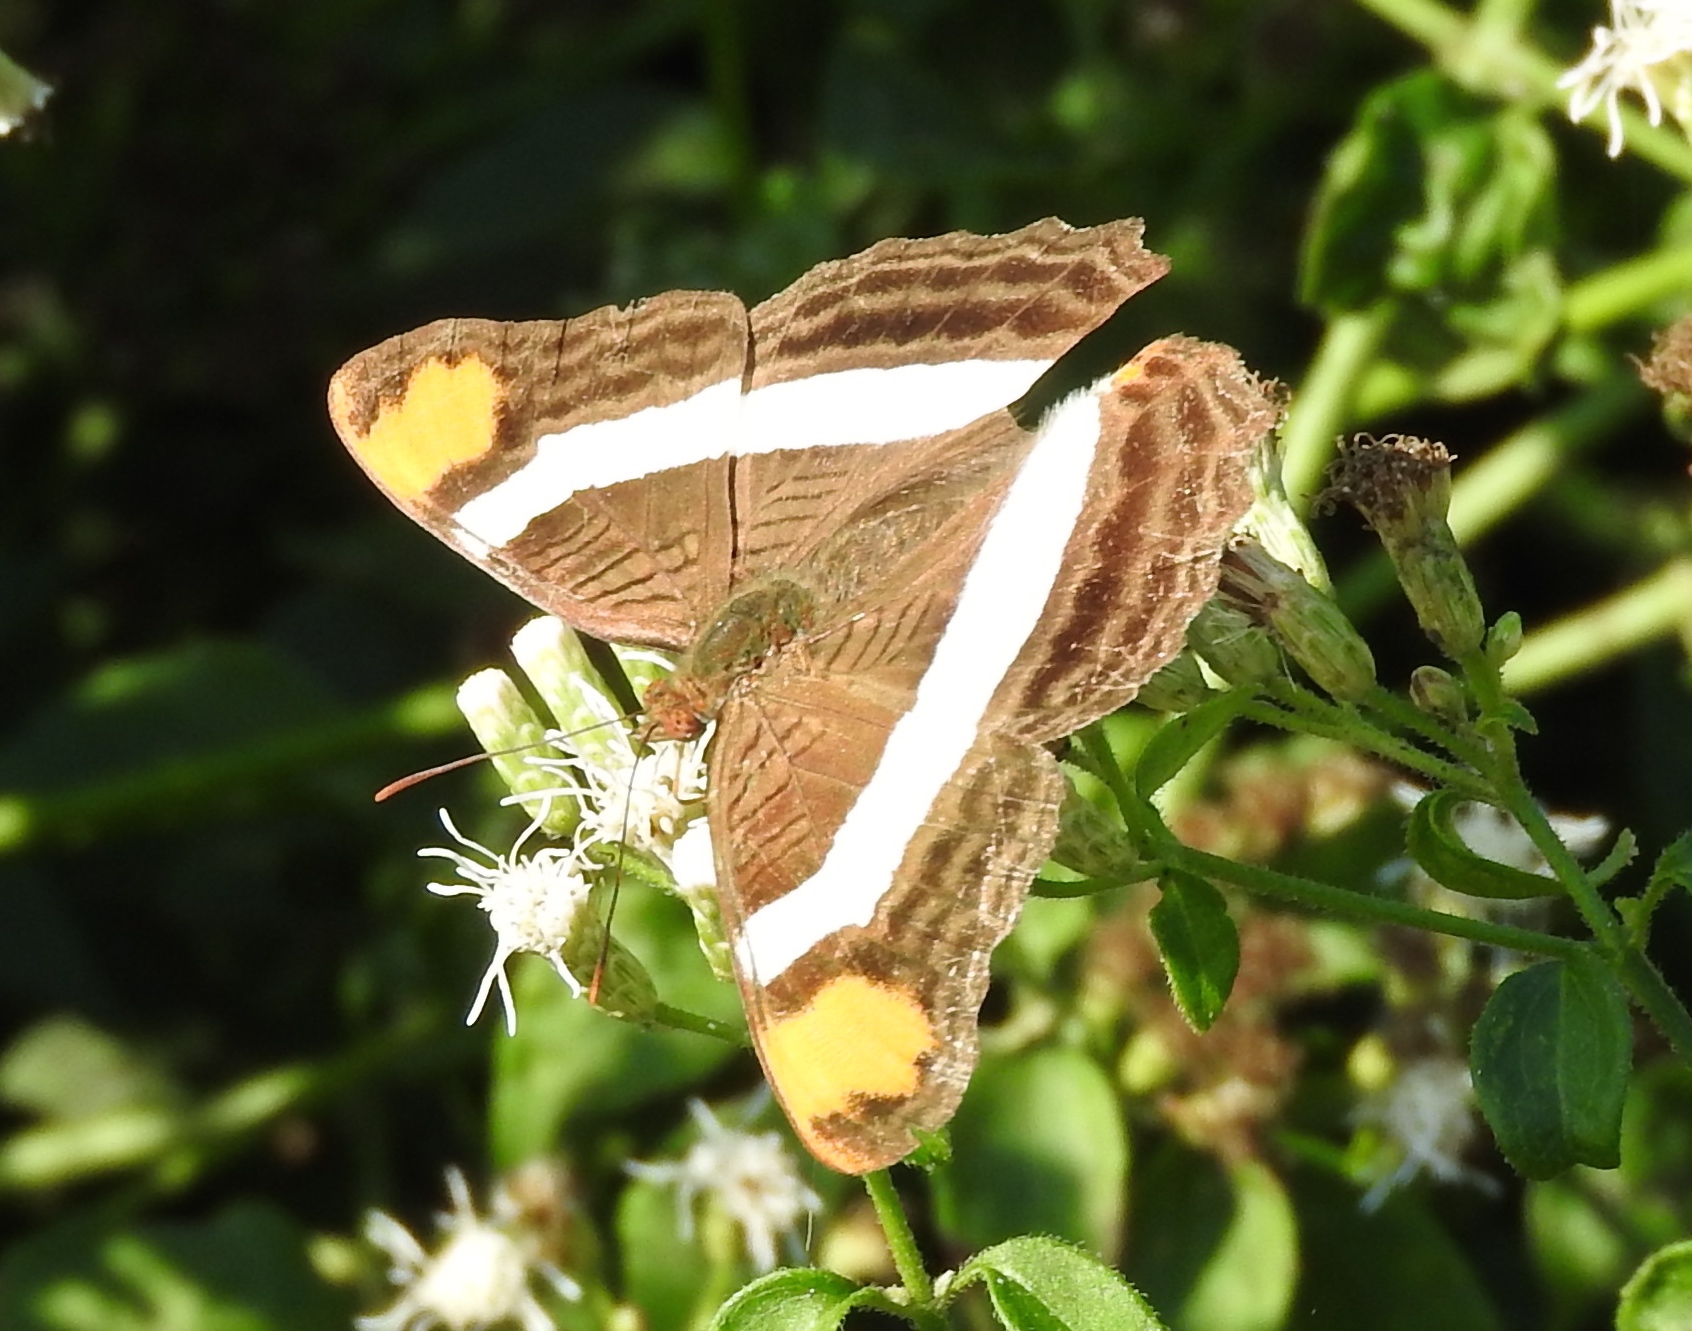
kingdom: Animalia
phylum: Arthropoda
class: Insecta
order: Lepidoptera
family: Nymphalidae
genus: Limenitis
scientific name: Limenitis fessonia
